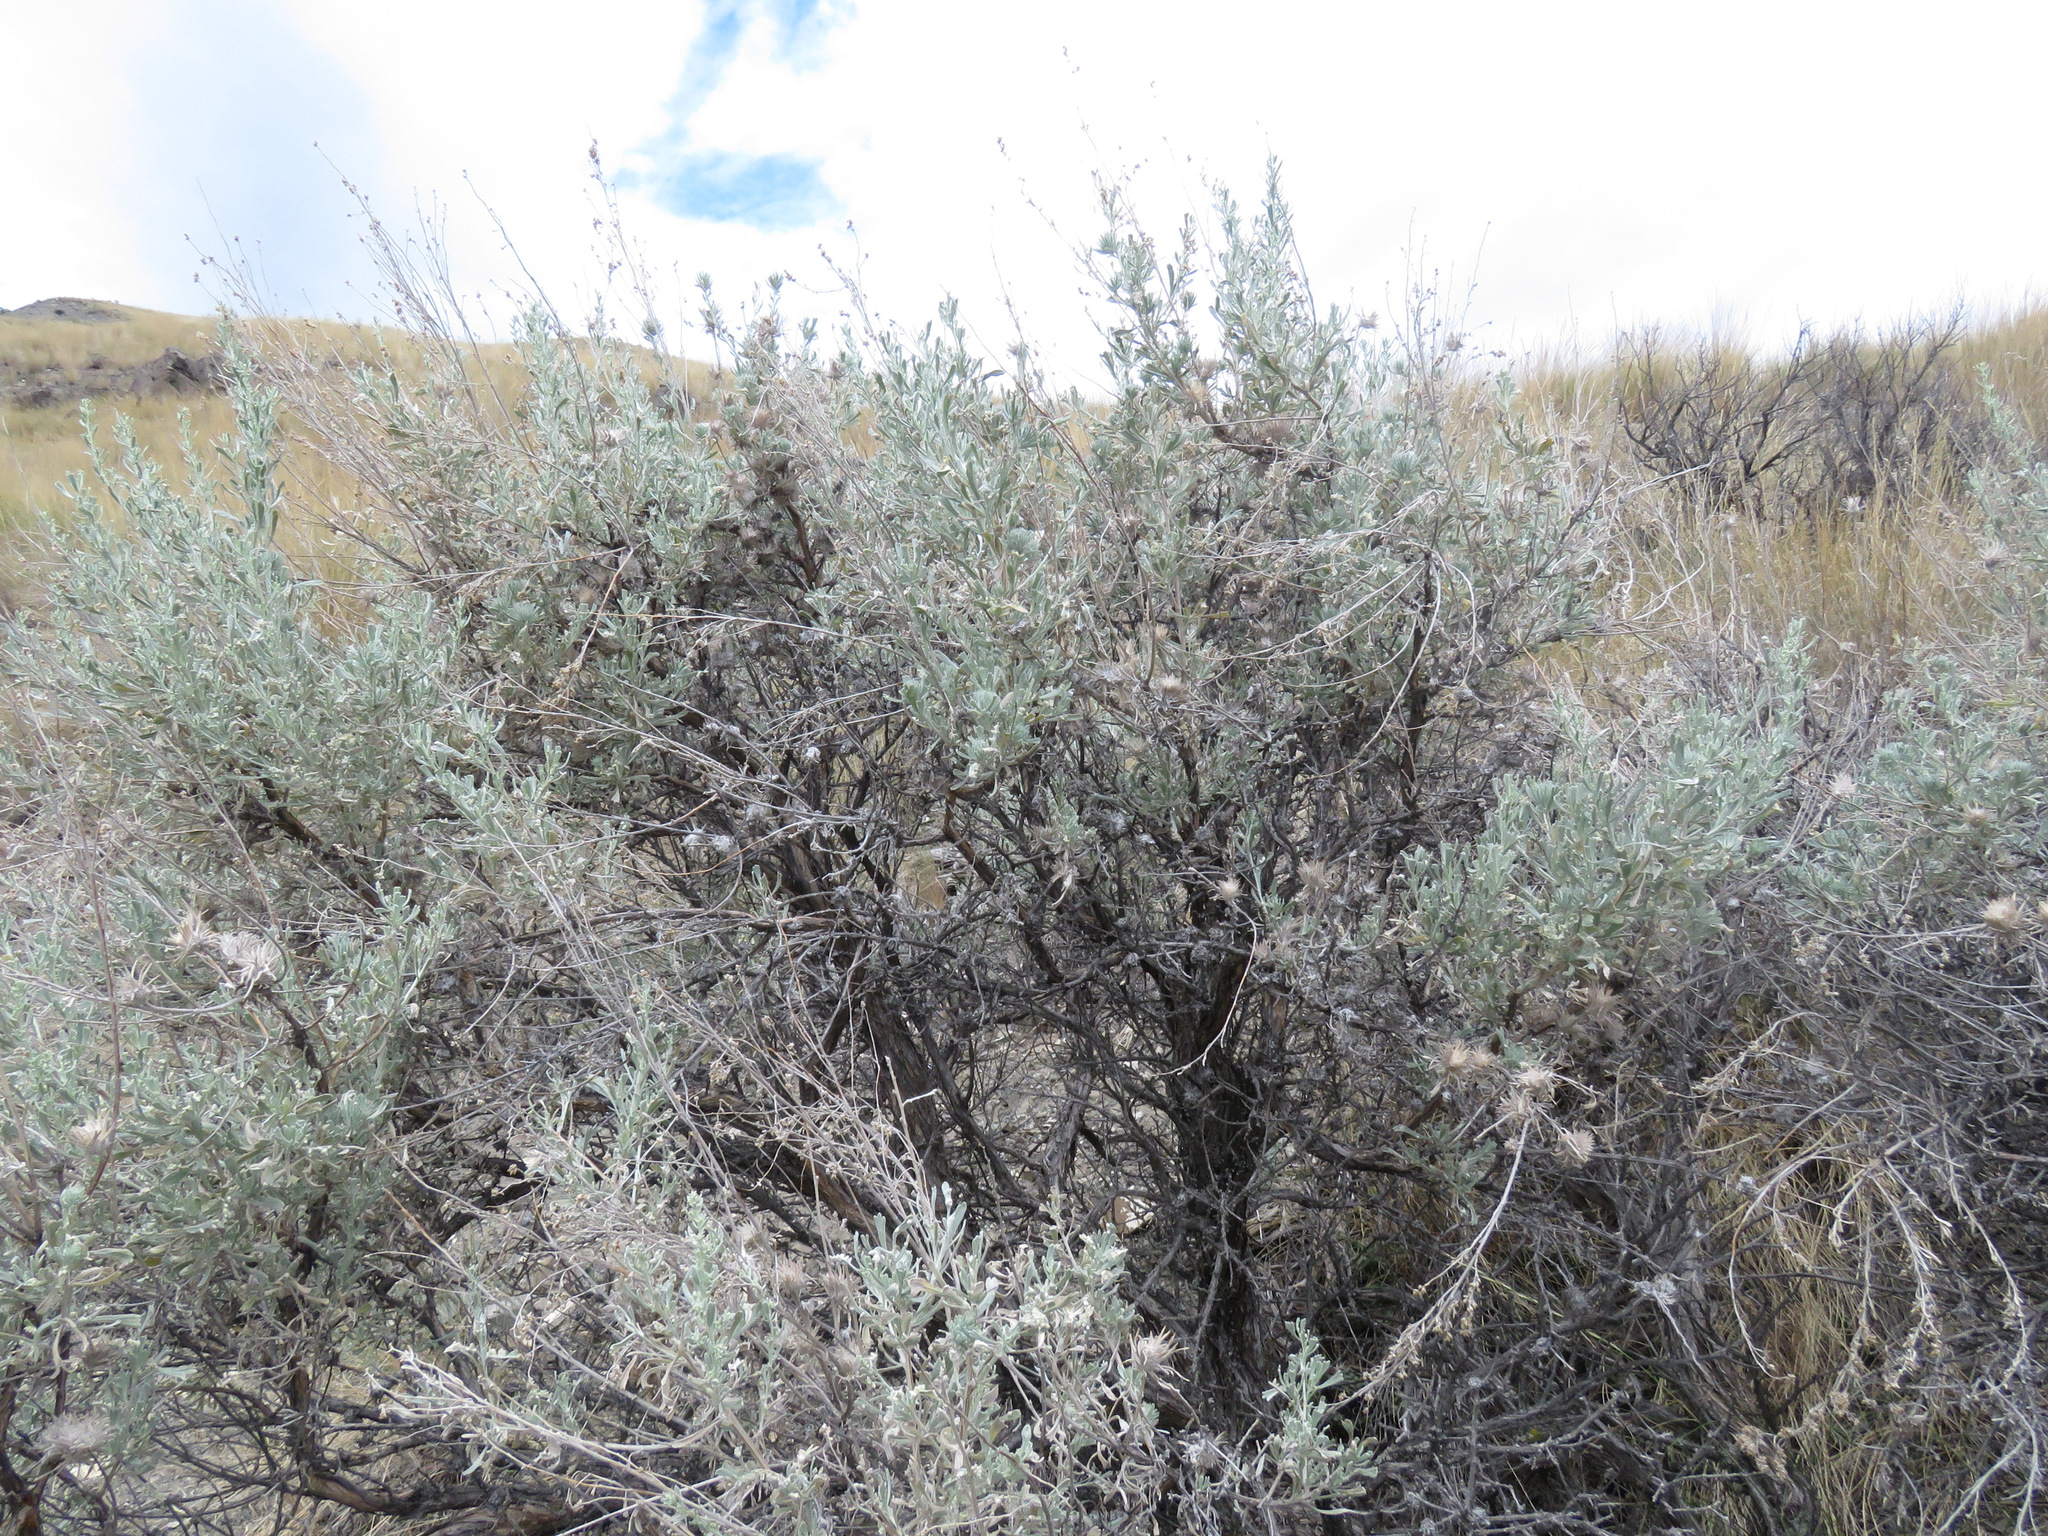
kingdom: Plantae
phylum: Tracheophyta
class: Magnoliopsida
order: Asterales
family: Asteraceae
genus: Artemisia
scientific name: Artemisia tridentata
